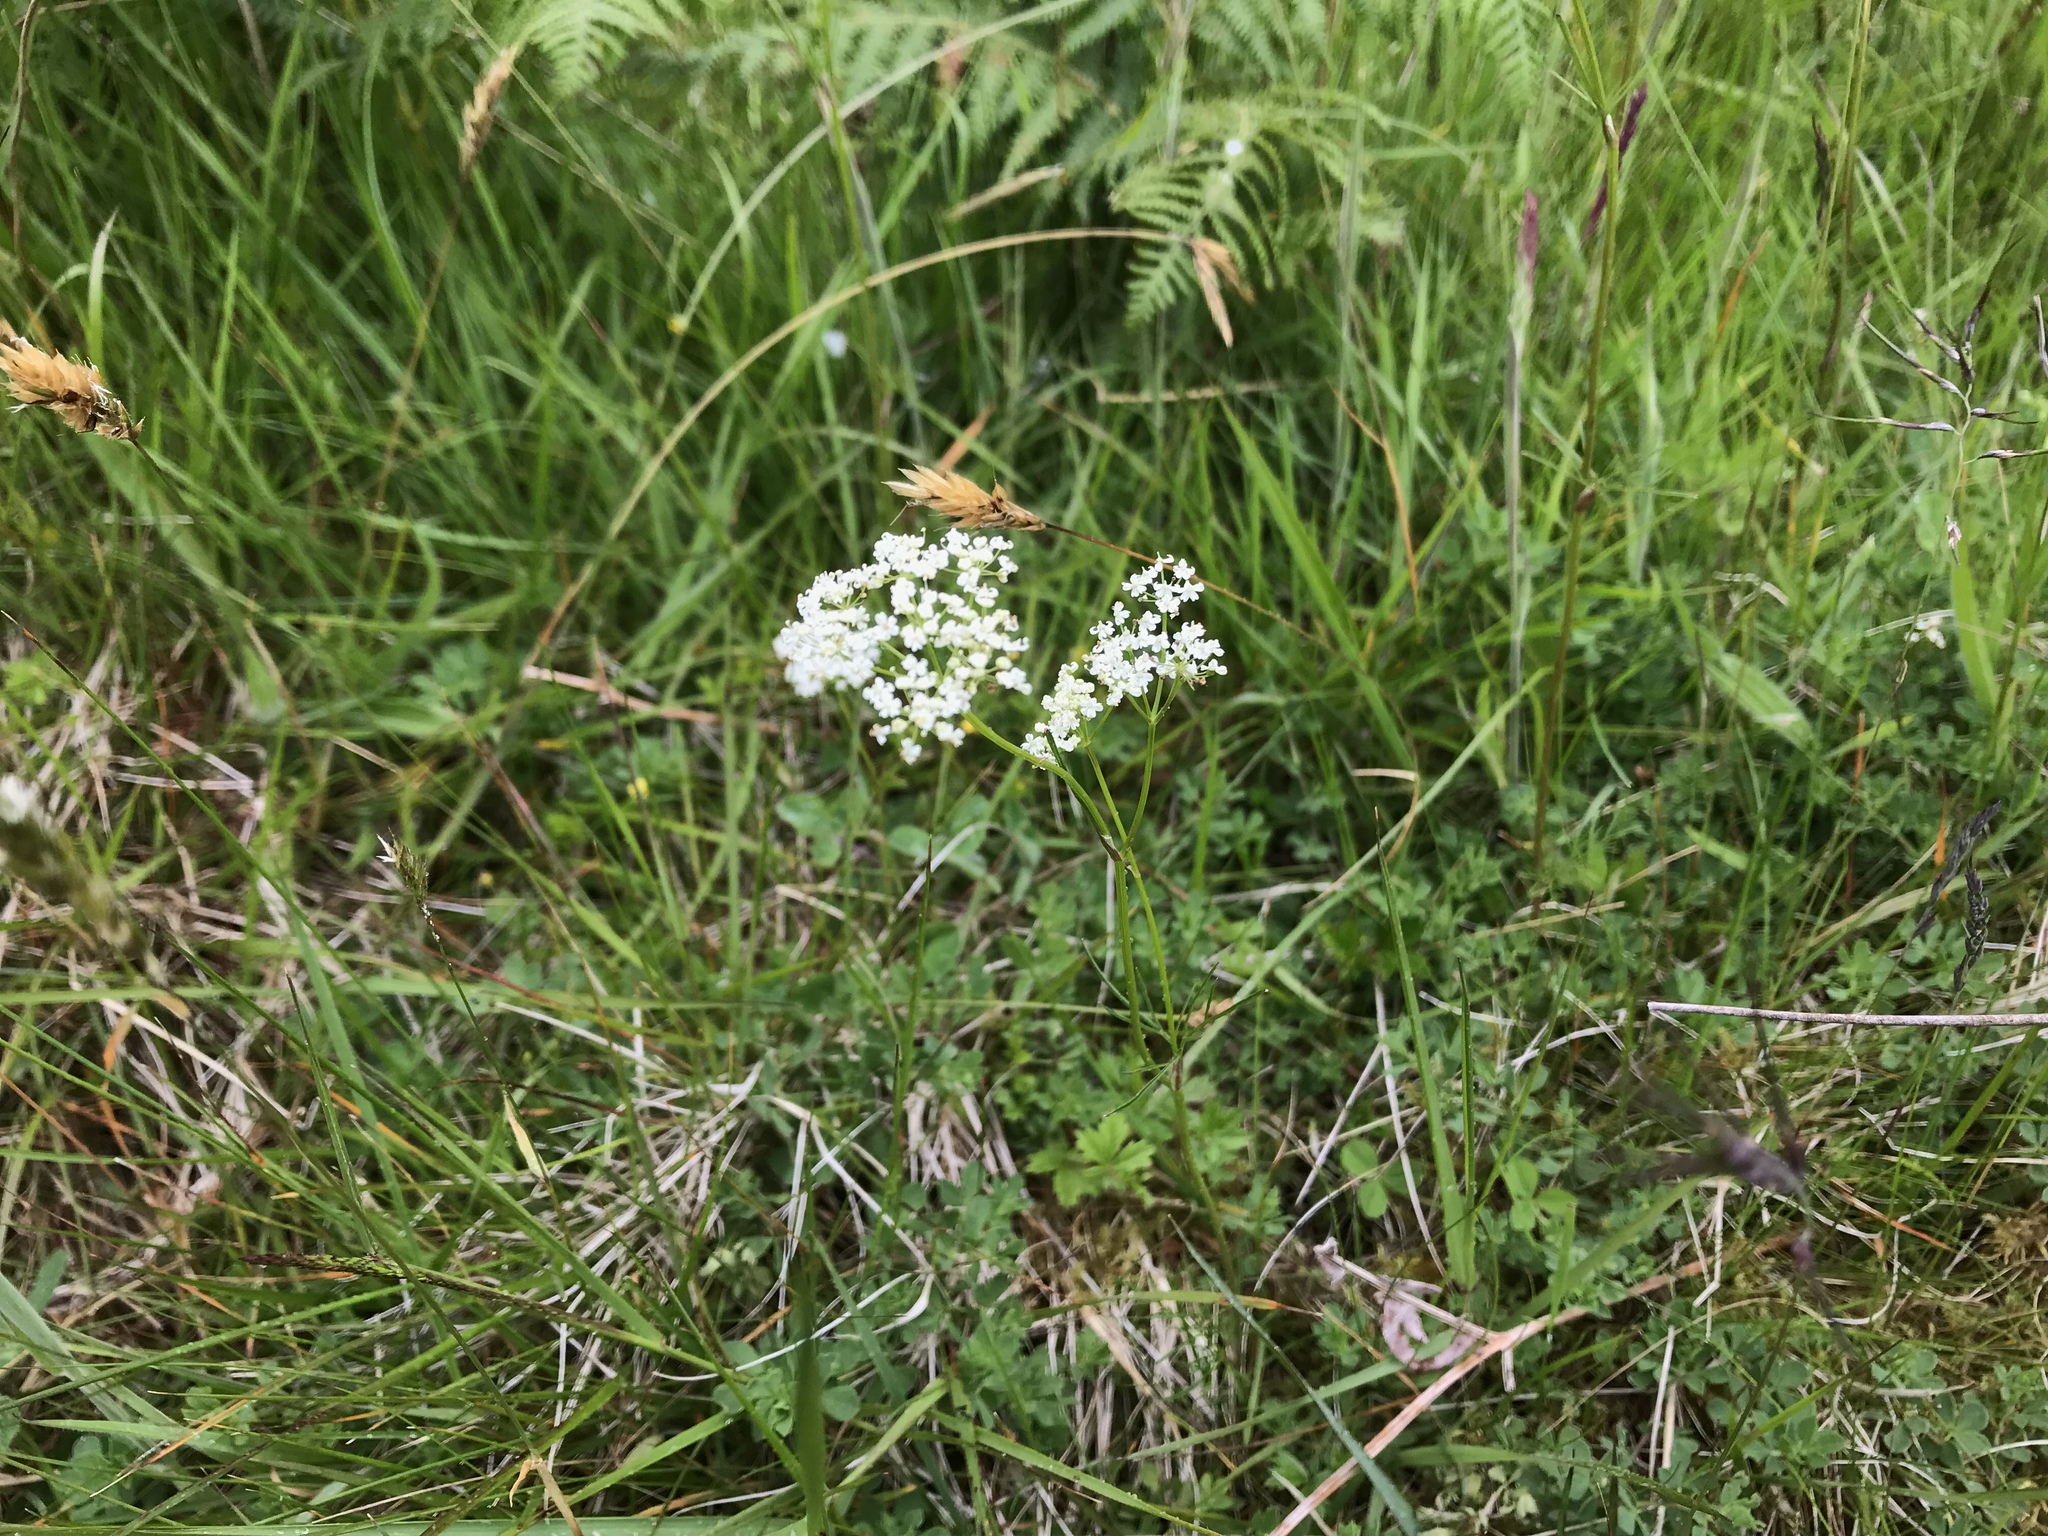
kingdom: Plantae
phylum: Tracheophyta
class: Magnoliopsida
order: Apiales
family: Apiaceae
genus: Conopodium
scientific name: Conopodium majus
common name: Pignut
